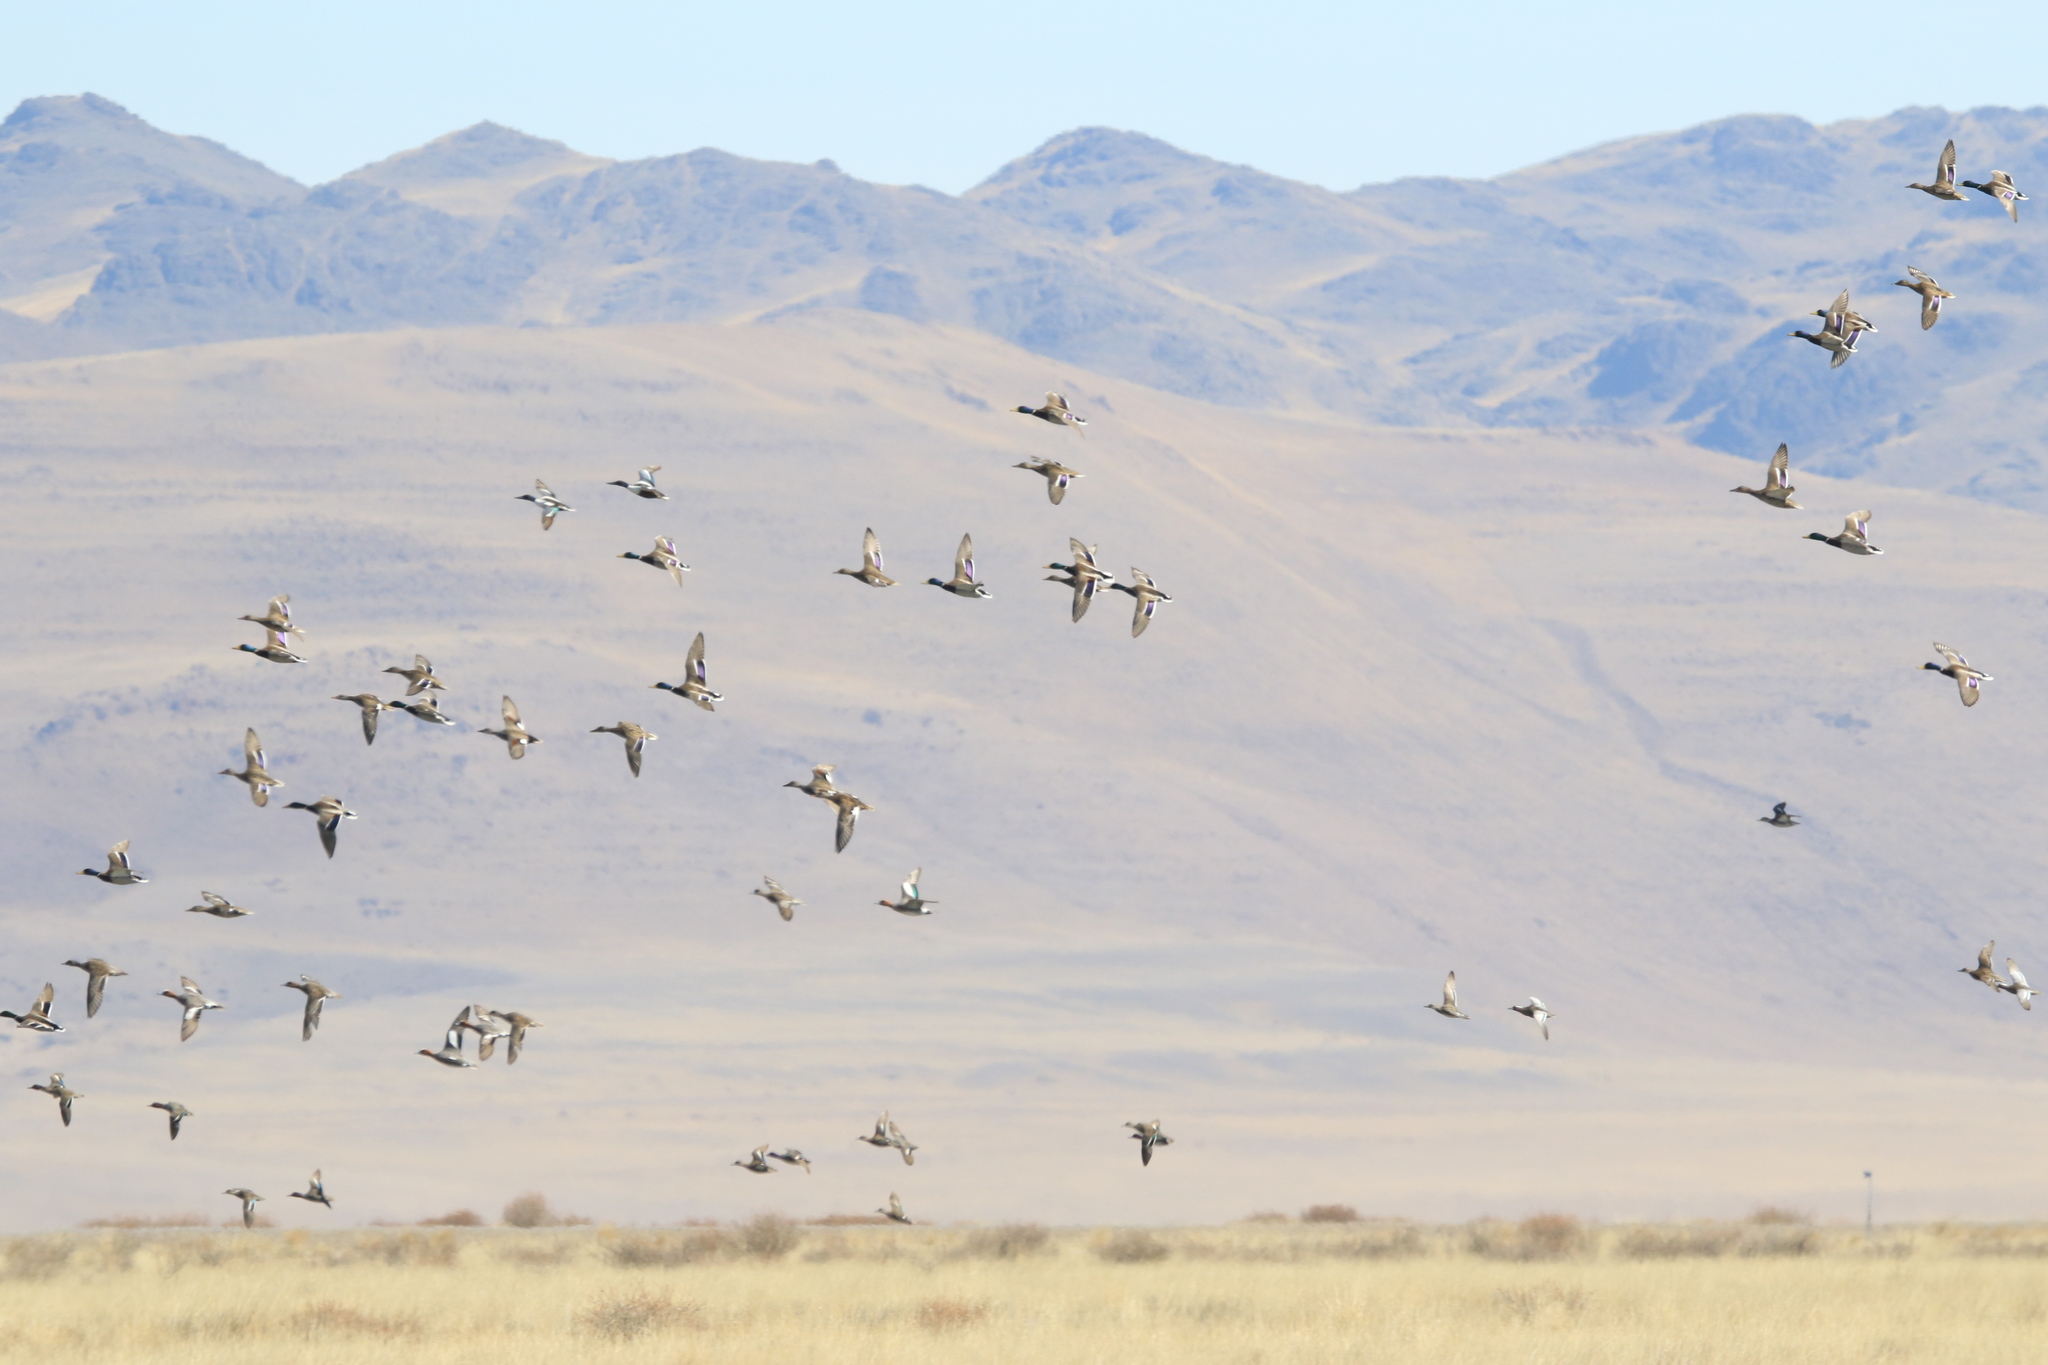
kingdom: Animalia
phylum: Chordata
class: Aves
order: Anseriformes
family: Anatidae
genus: Anas
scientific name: Anas platyrhynchos
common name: Mallard
